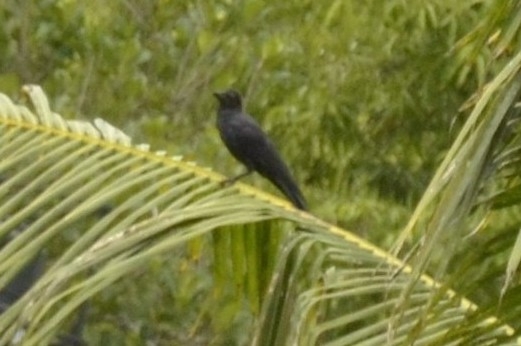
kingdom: Animalia
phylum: Chordata
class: Aves
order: Passeriformes
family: Corvidae
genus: Corvus
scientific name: Corvus macrorhynchos
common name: Large-billed crow
